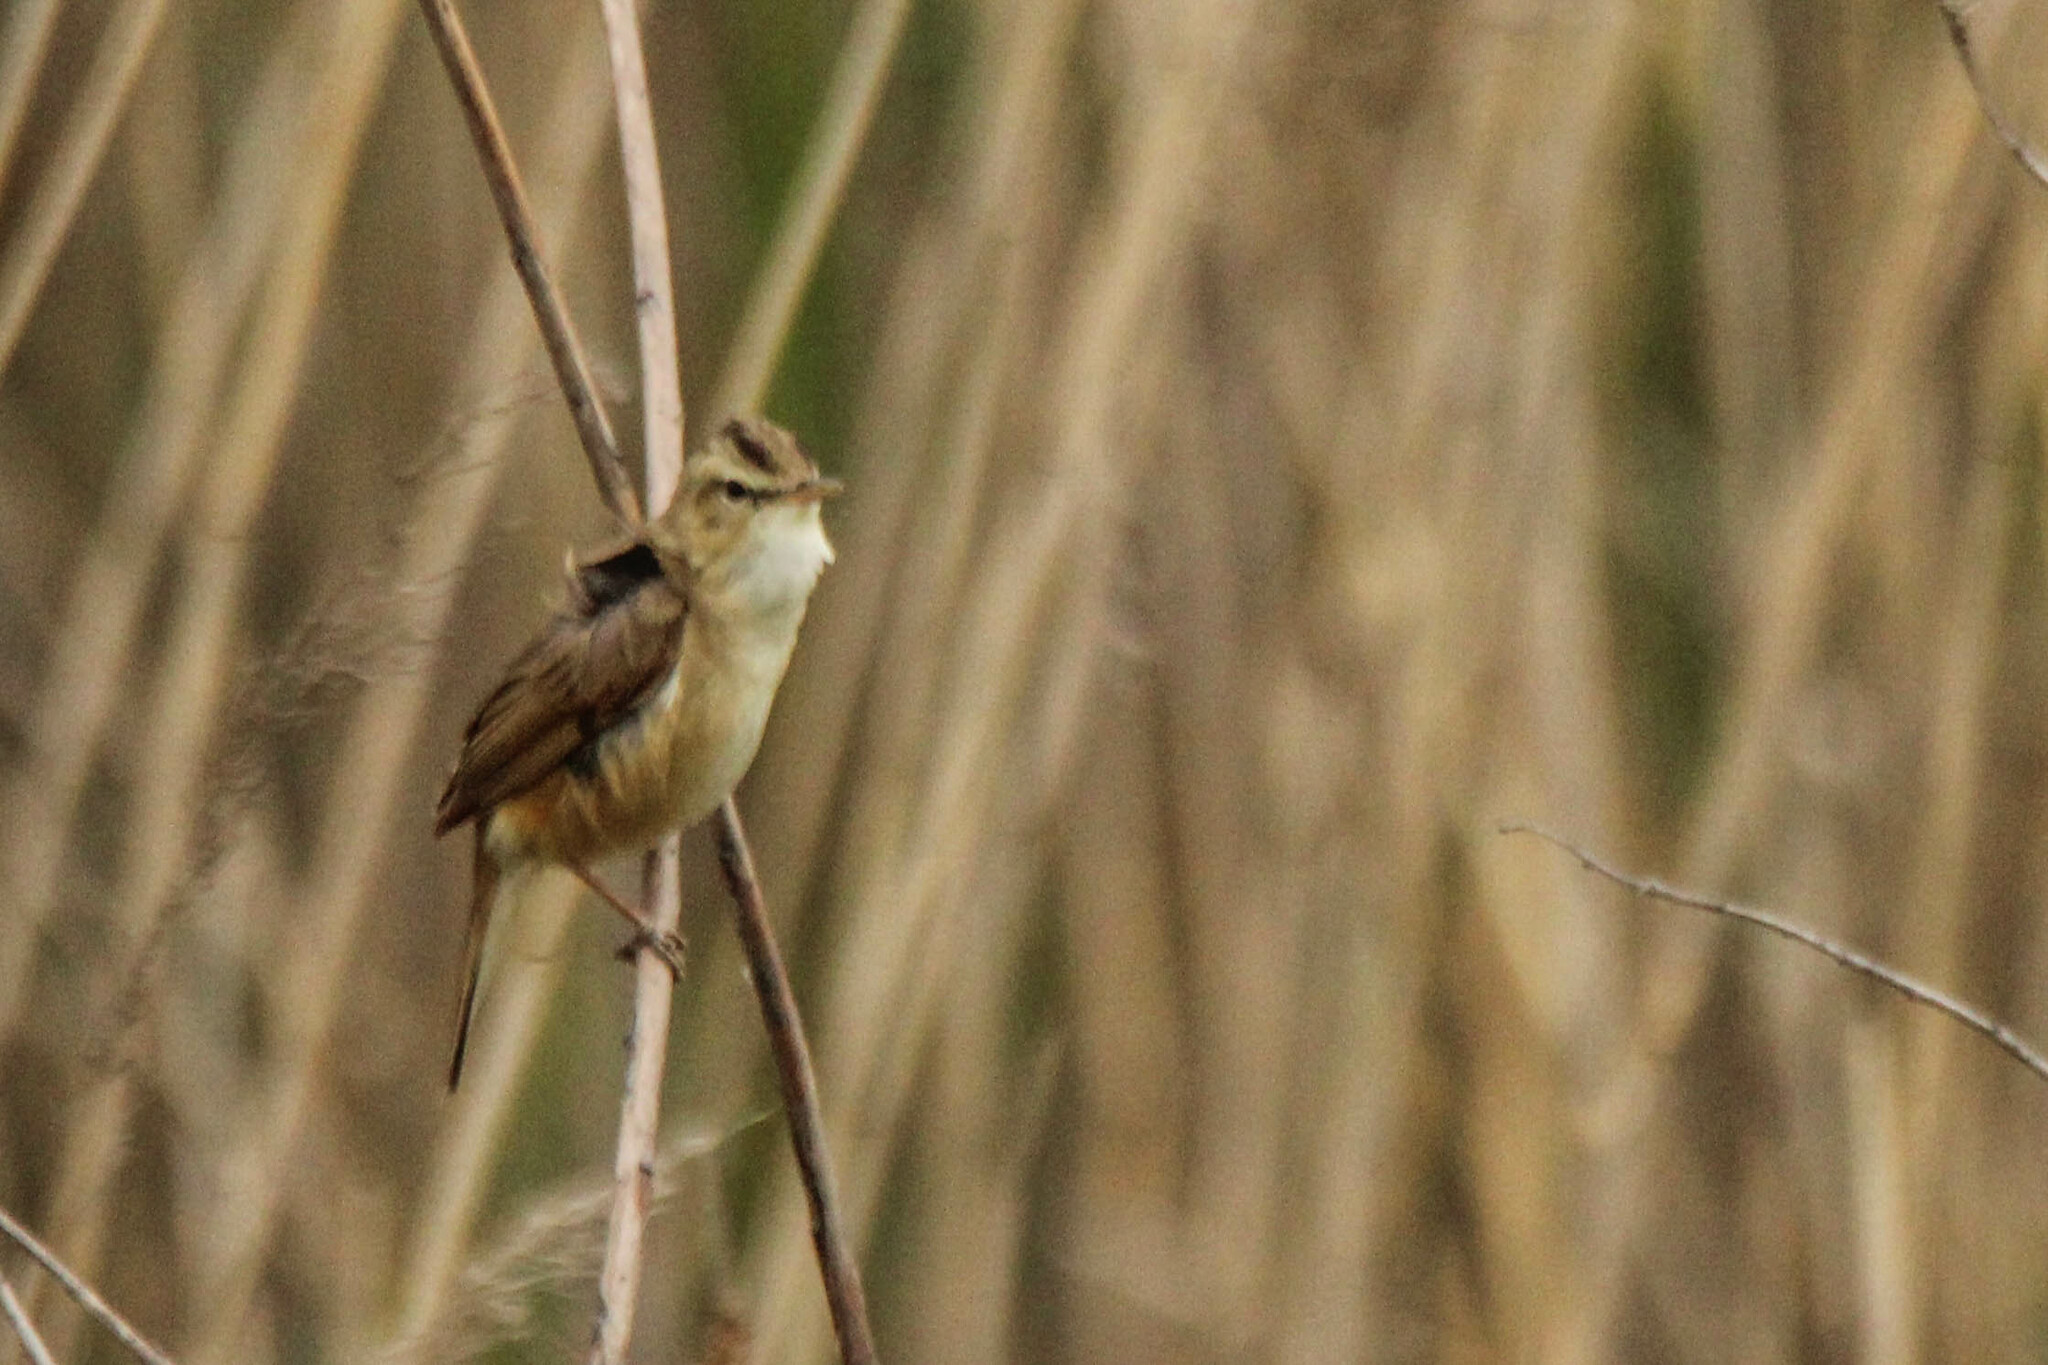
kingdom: Animalia
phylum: Chordata
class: Aves
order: Passeriformes
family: Acrocephalidae
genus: Acrocephalus
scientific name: Acrocephalus bistrigiceps
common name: Black-browed reed warbler
